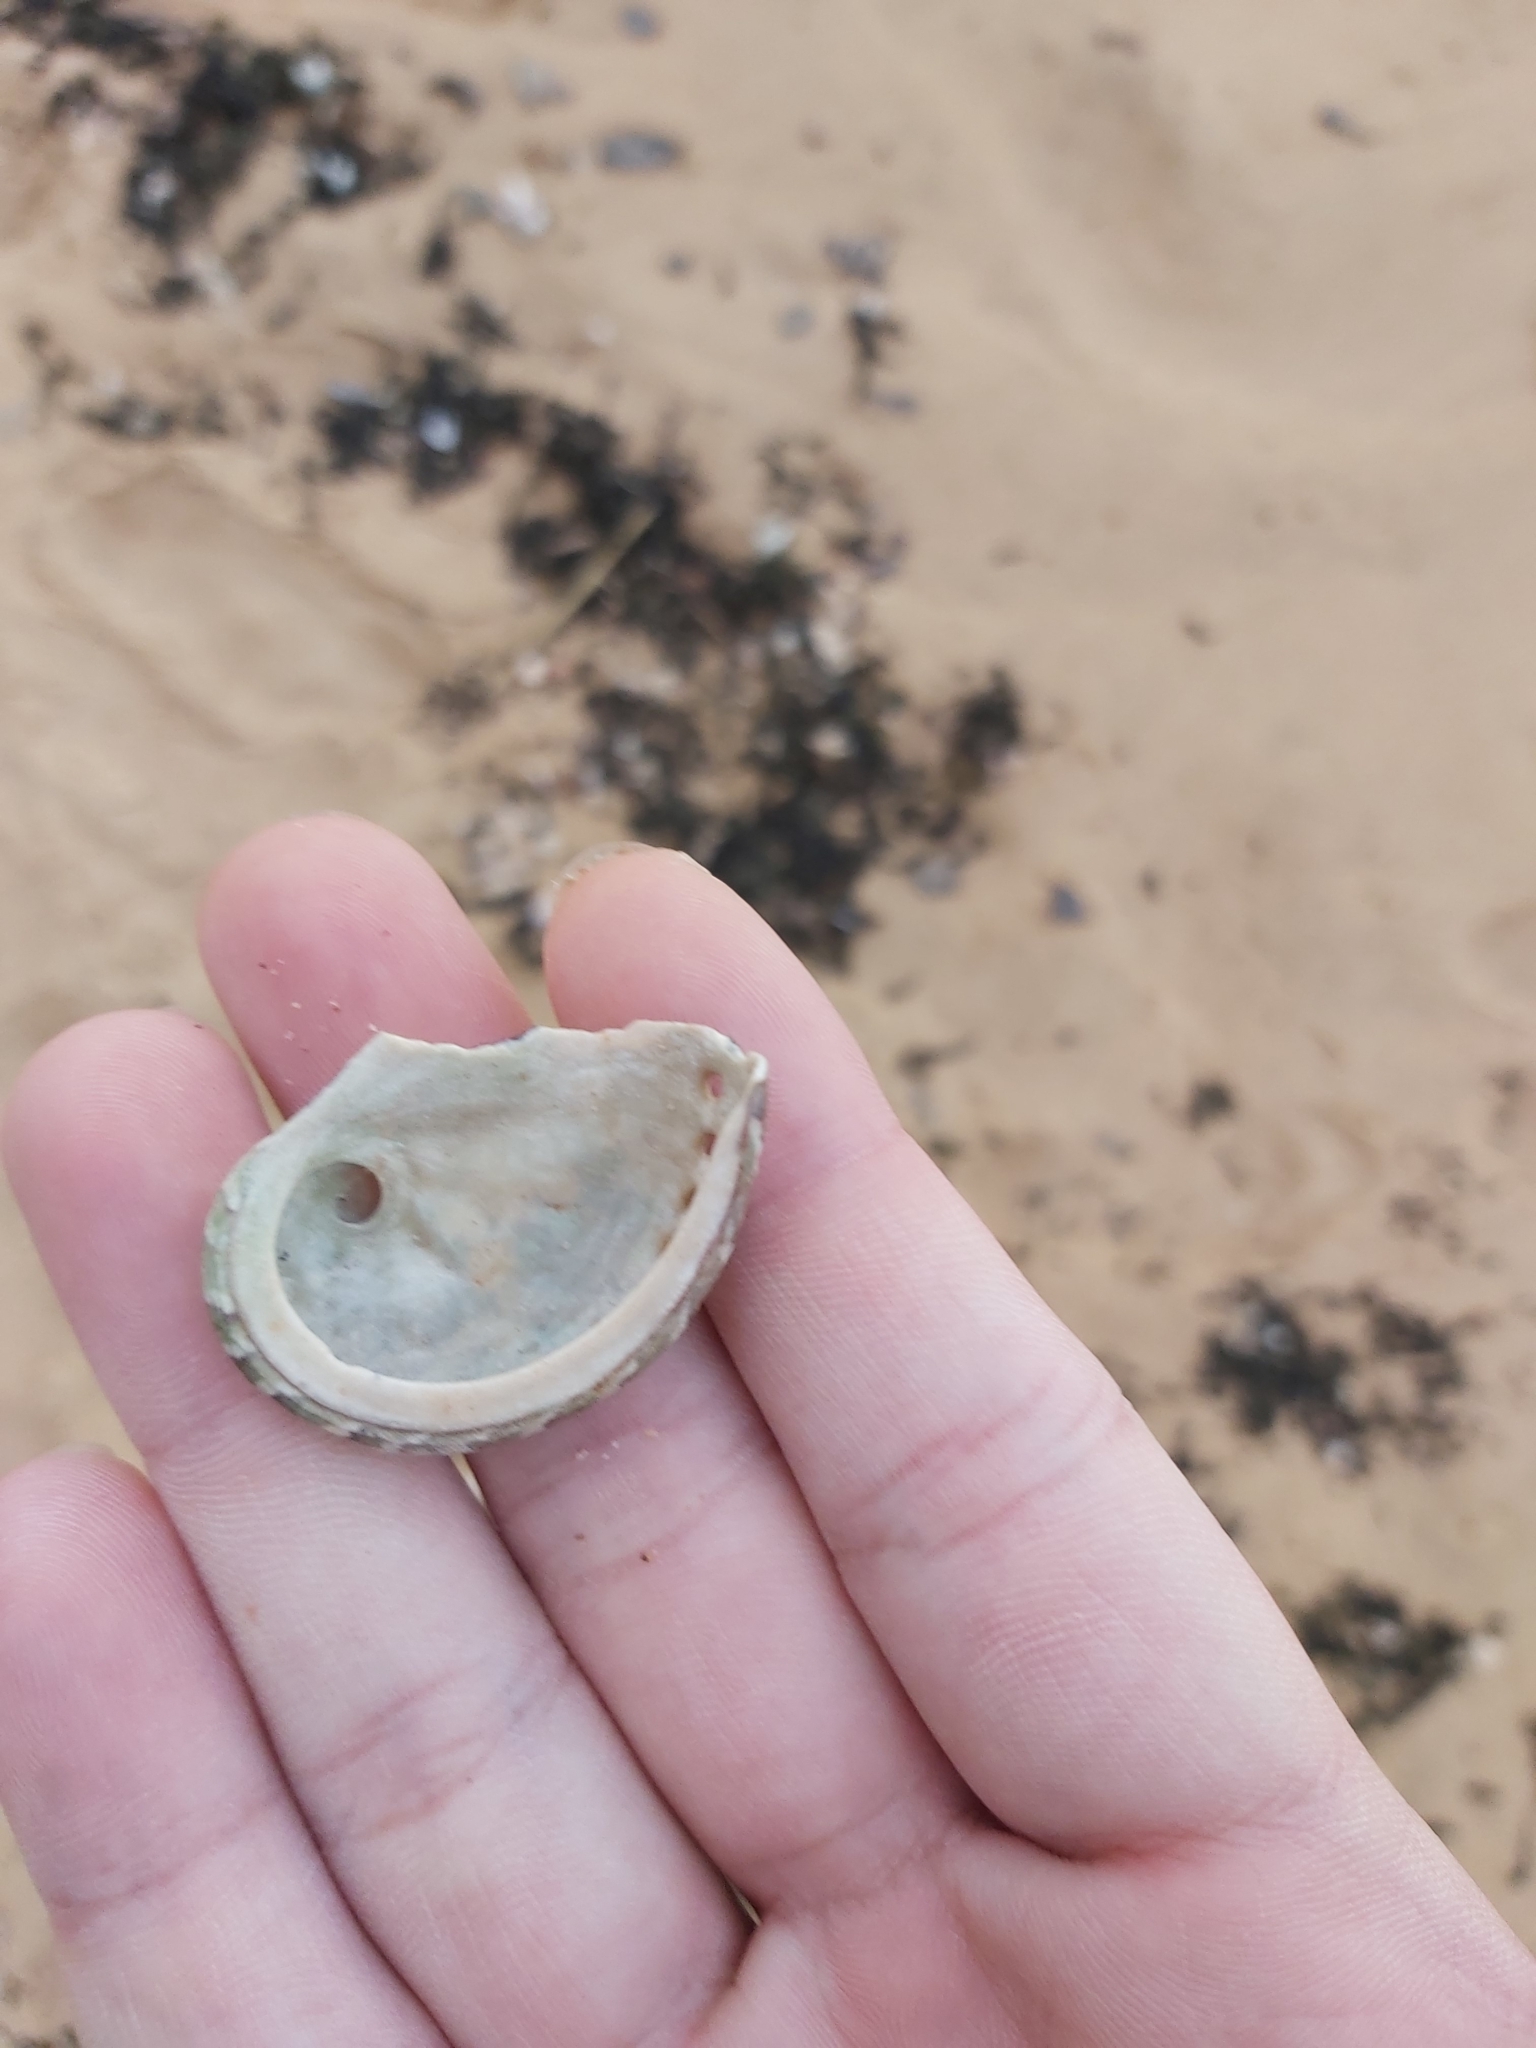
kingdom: Animalia
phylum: Mollusca
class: Gastropoda
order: Lepetellida
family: Haliotidae
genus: Haliotis
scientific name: Haliotis coccoradiata
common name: Reddish-rayed abalone
